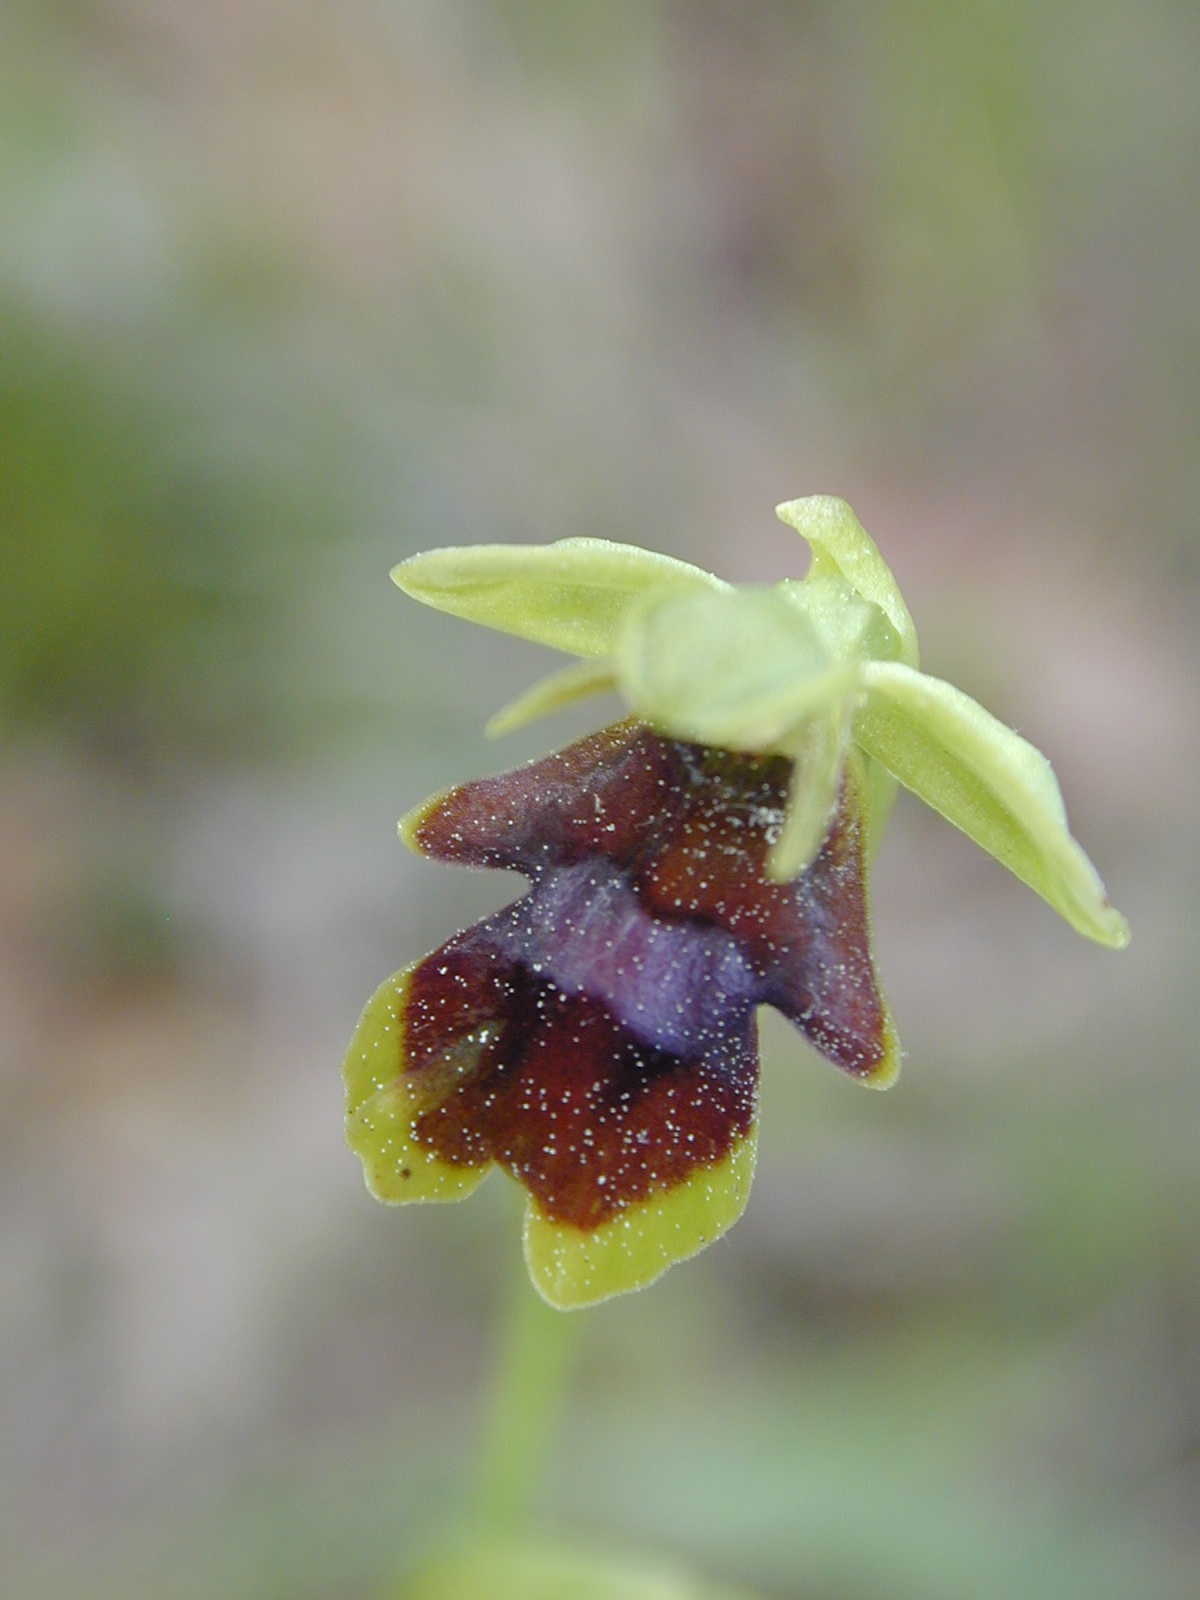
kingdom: Plantae
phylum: Tracheophyta
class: Liliopsida
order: Asparagales
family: Orchidaceae
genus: Ophrys
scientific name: Ophrys insectifera
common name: Fly orchid
